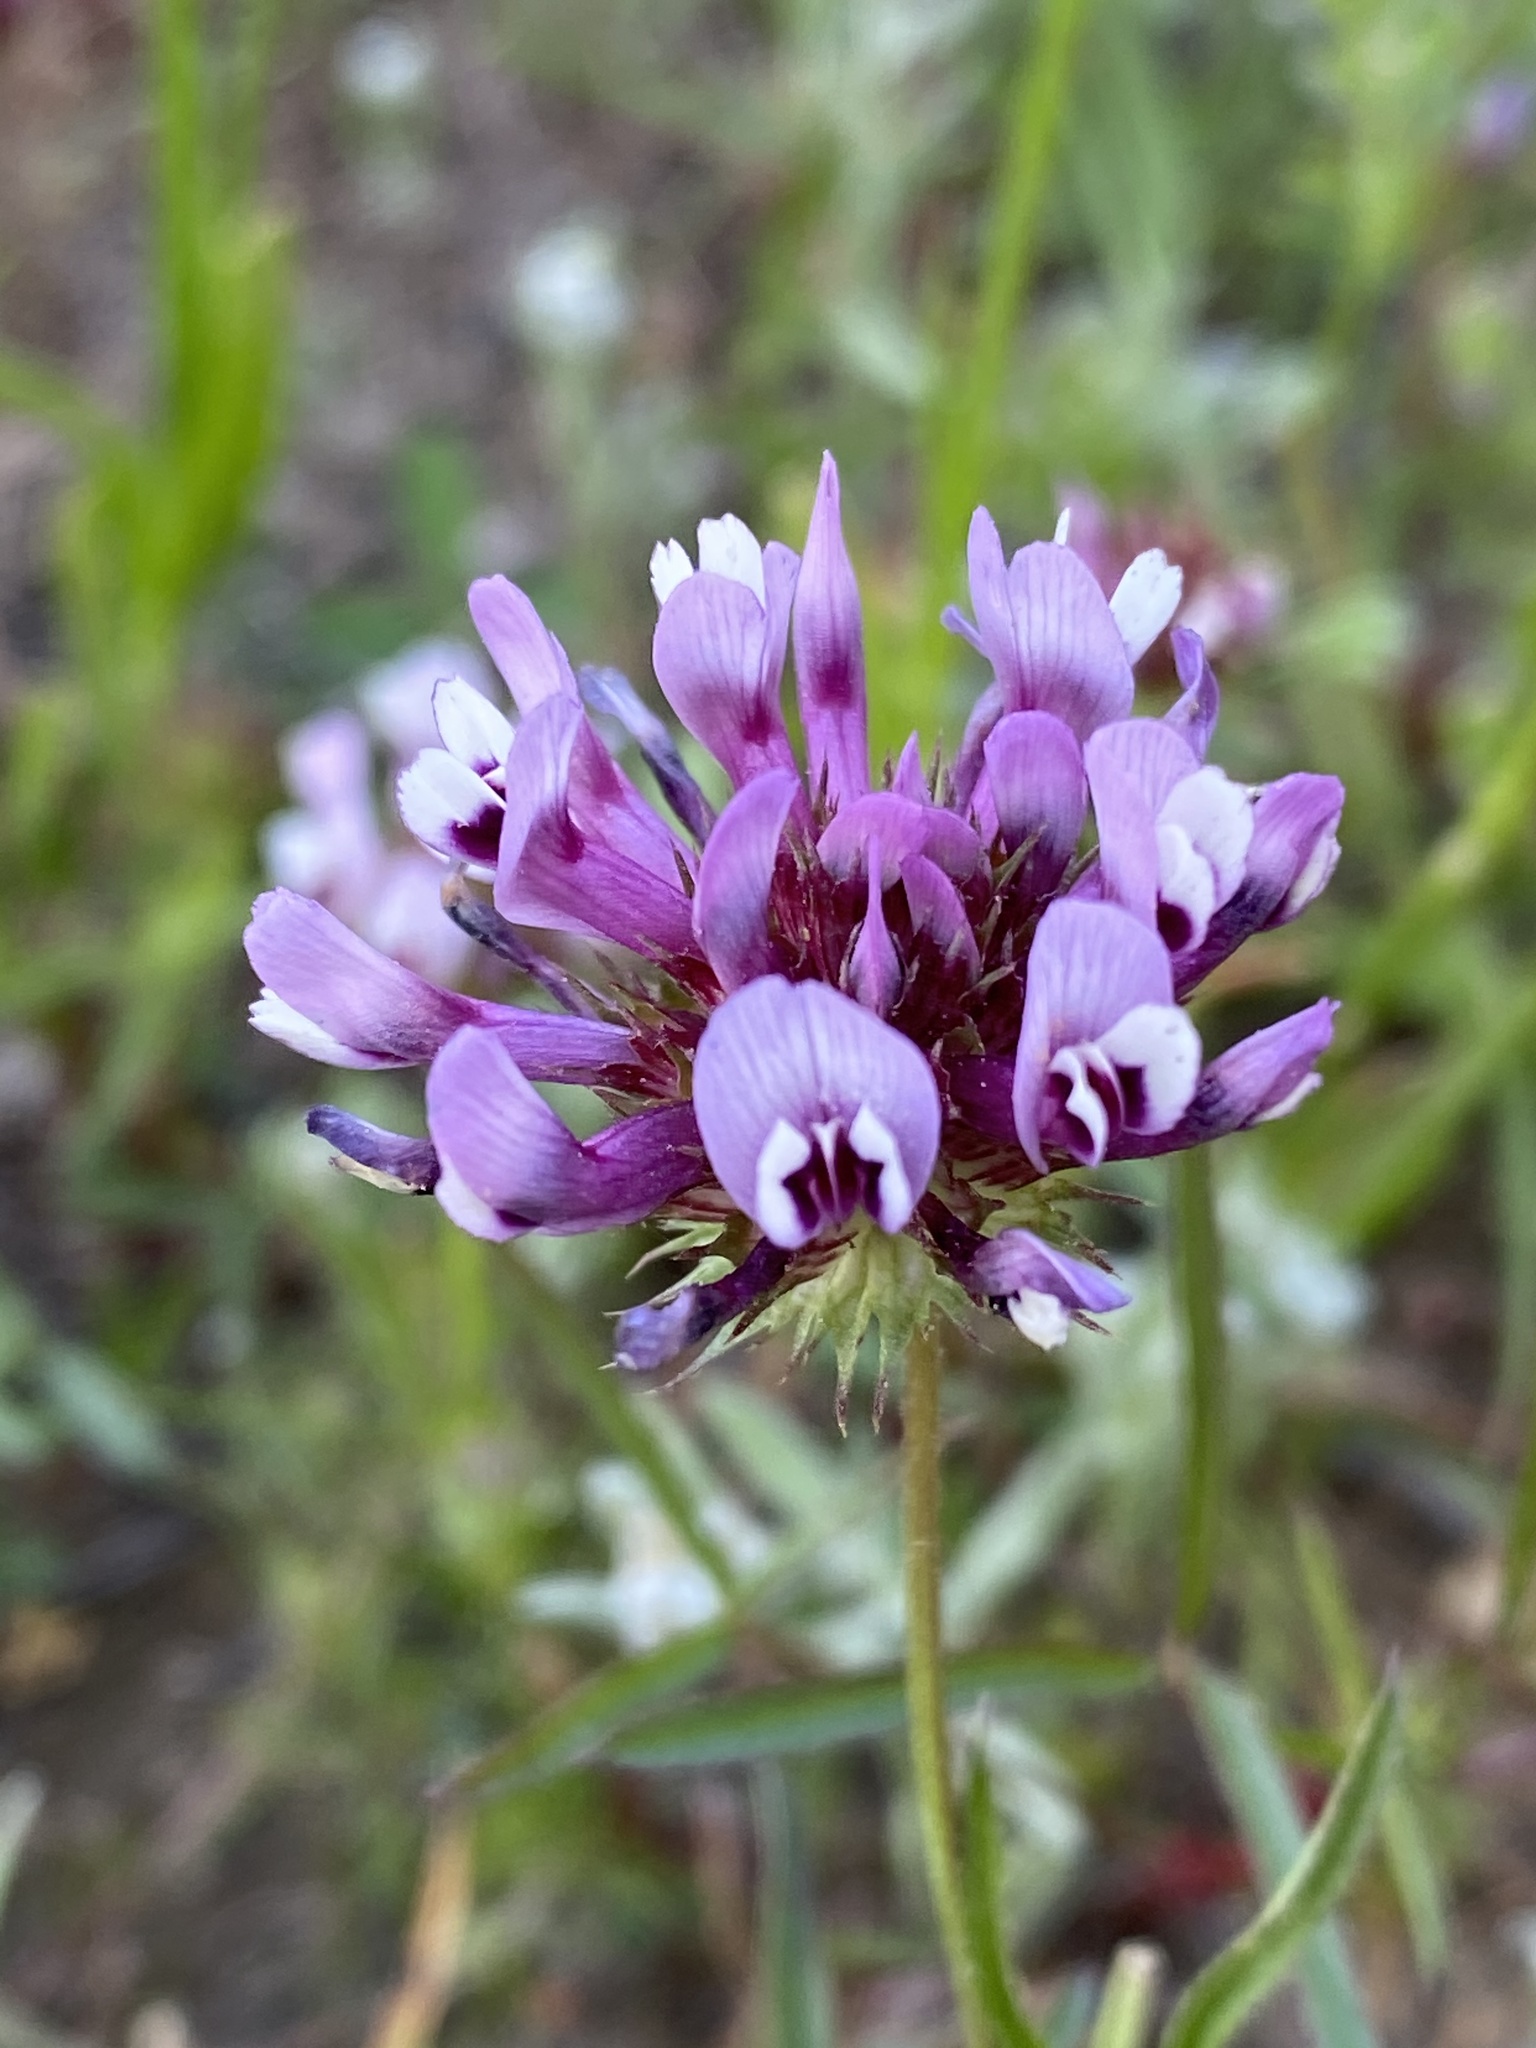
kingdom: Plantae
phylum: Tracheophyta
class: Magnoliopsida
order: Fabales
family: Fabaceae
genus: Trifolium
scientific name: Trifolium willdenovii
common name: Tomcat clover
